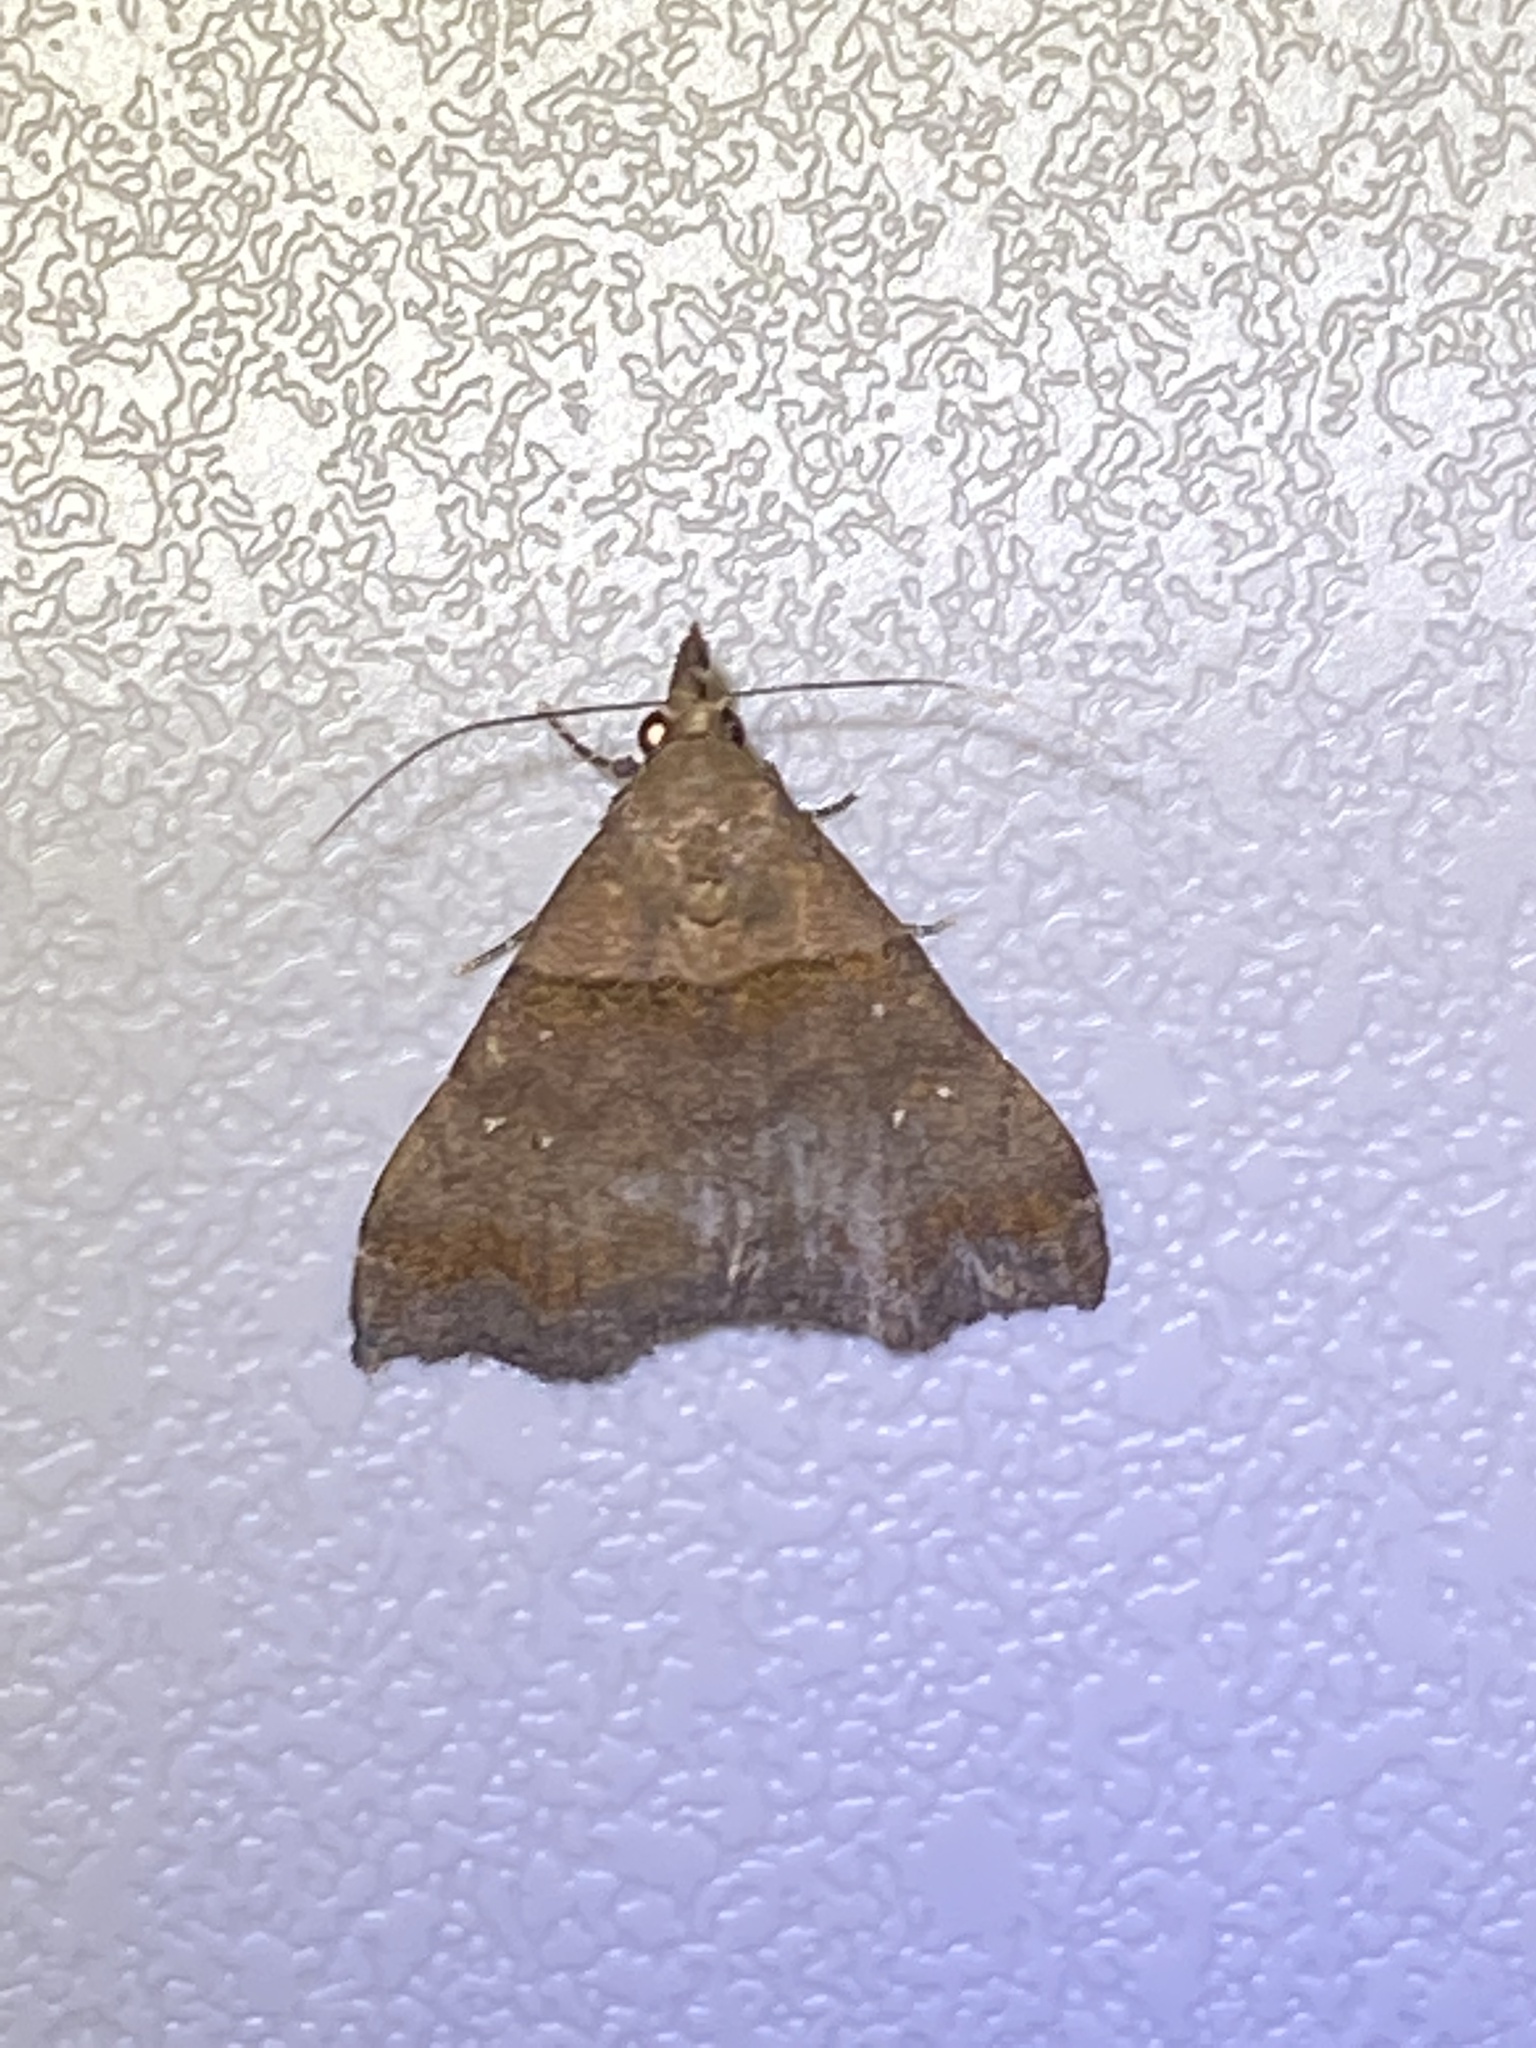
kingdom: Animalia
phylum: Arthropoda
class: Insecta
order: Lepidoptera
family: Erebidae
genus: Lascoria
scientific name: Lascoria ambigualis
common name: Ambiguous moth
